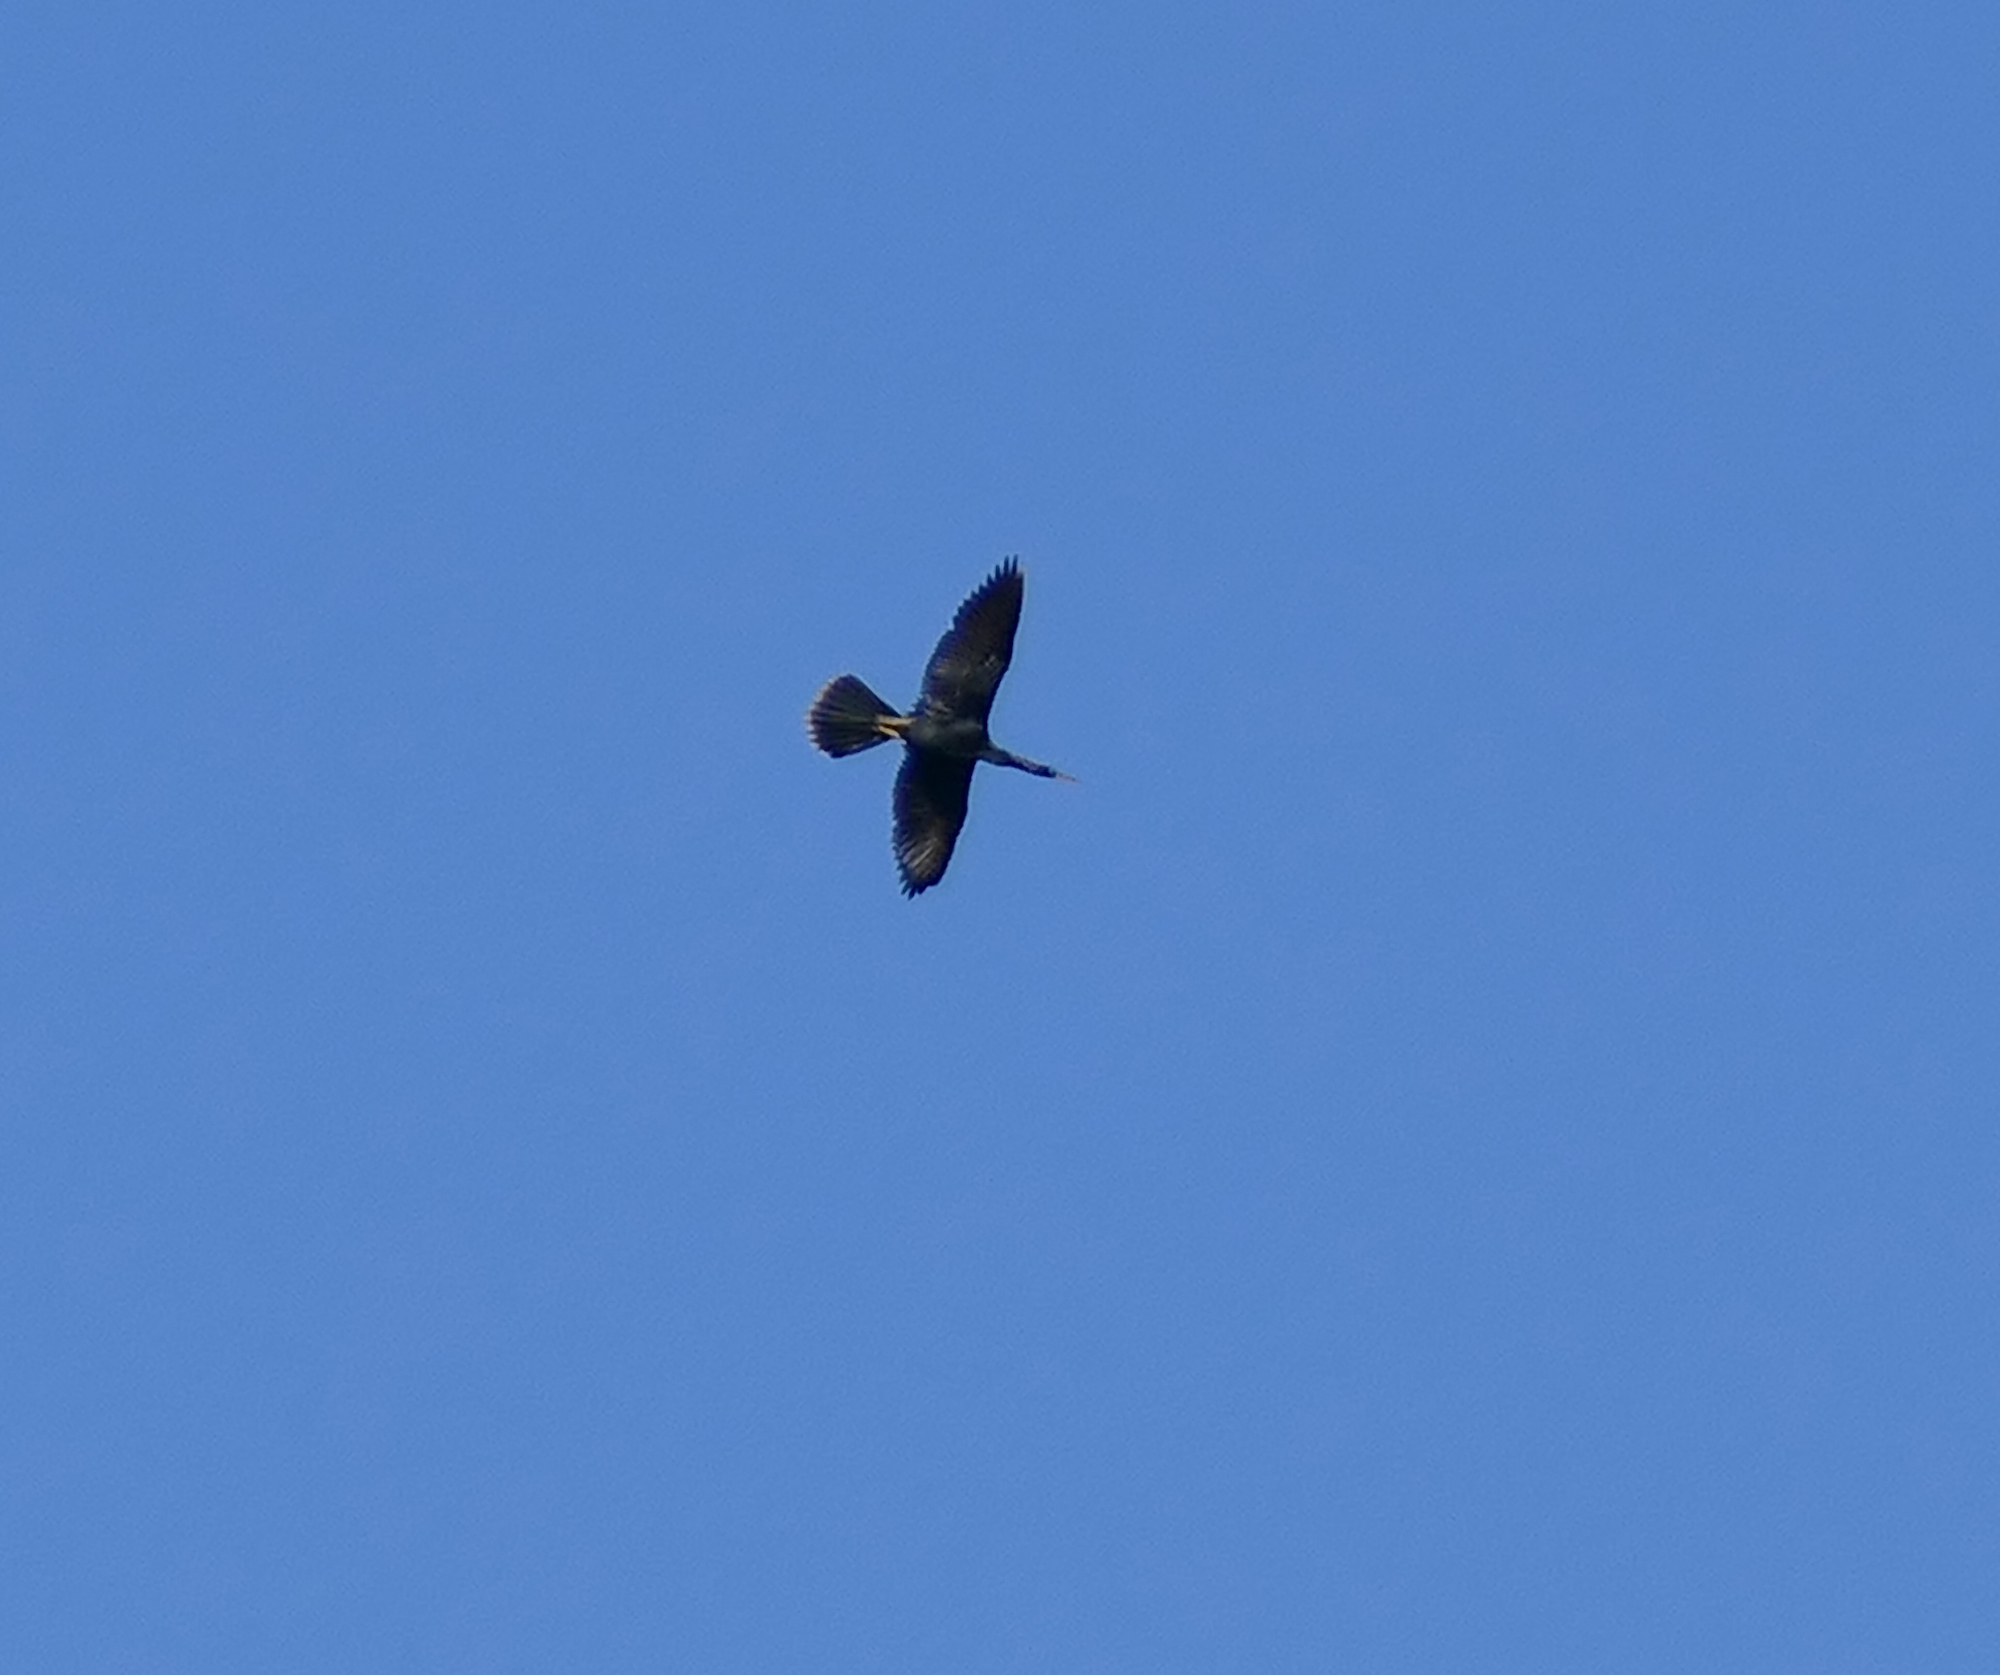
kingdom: Animalia
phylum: Chordata
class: Aves
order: Suliformes
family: Anhingidae
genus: Anhinga
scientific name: Anhinga anhinga
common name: Anhinga
